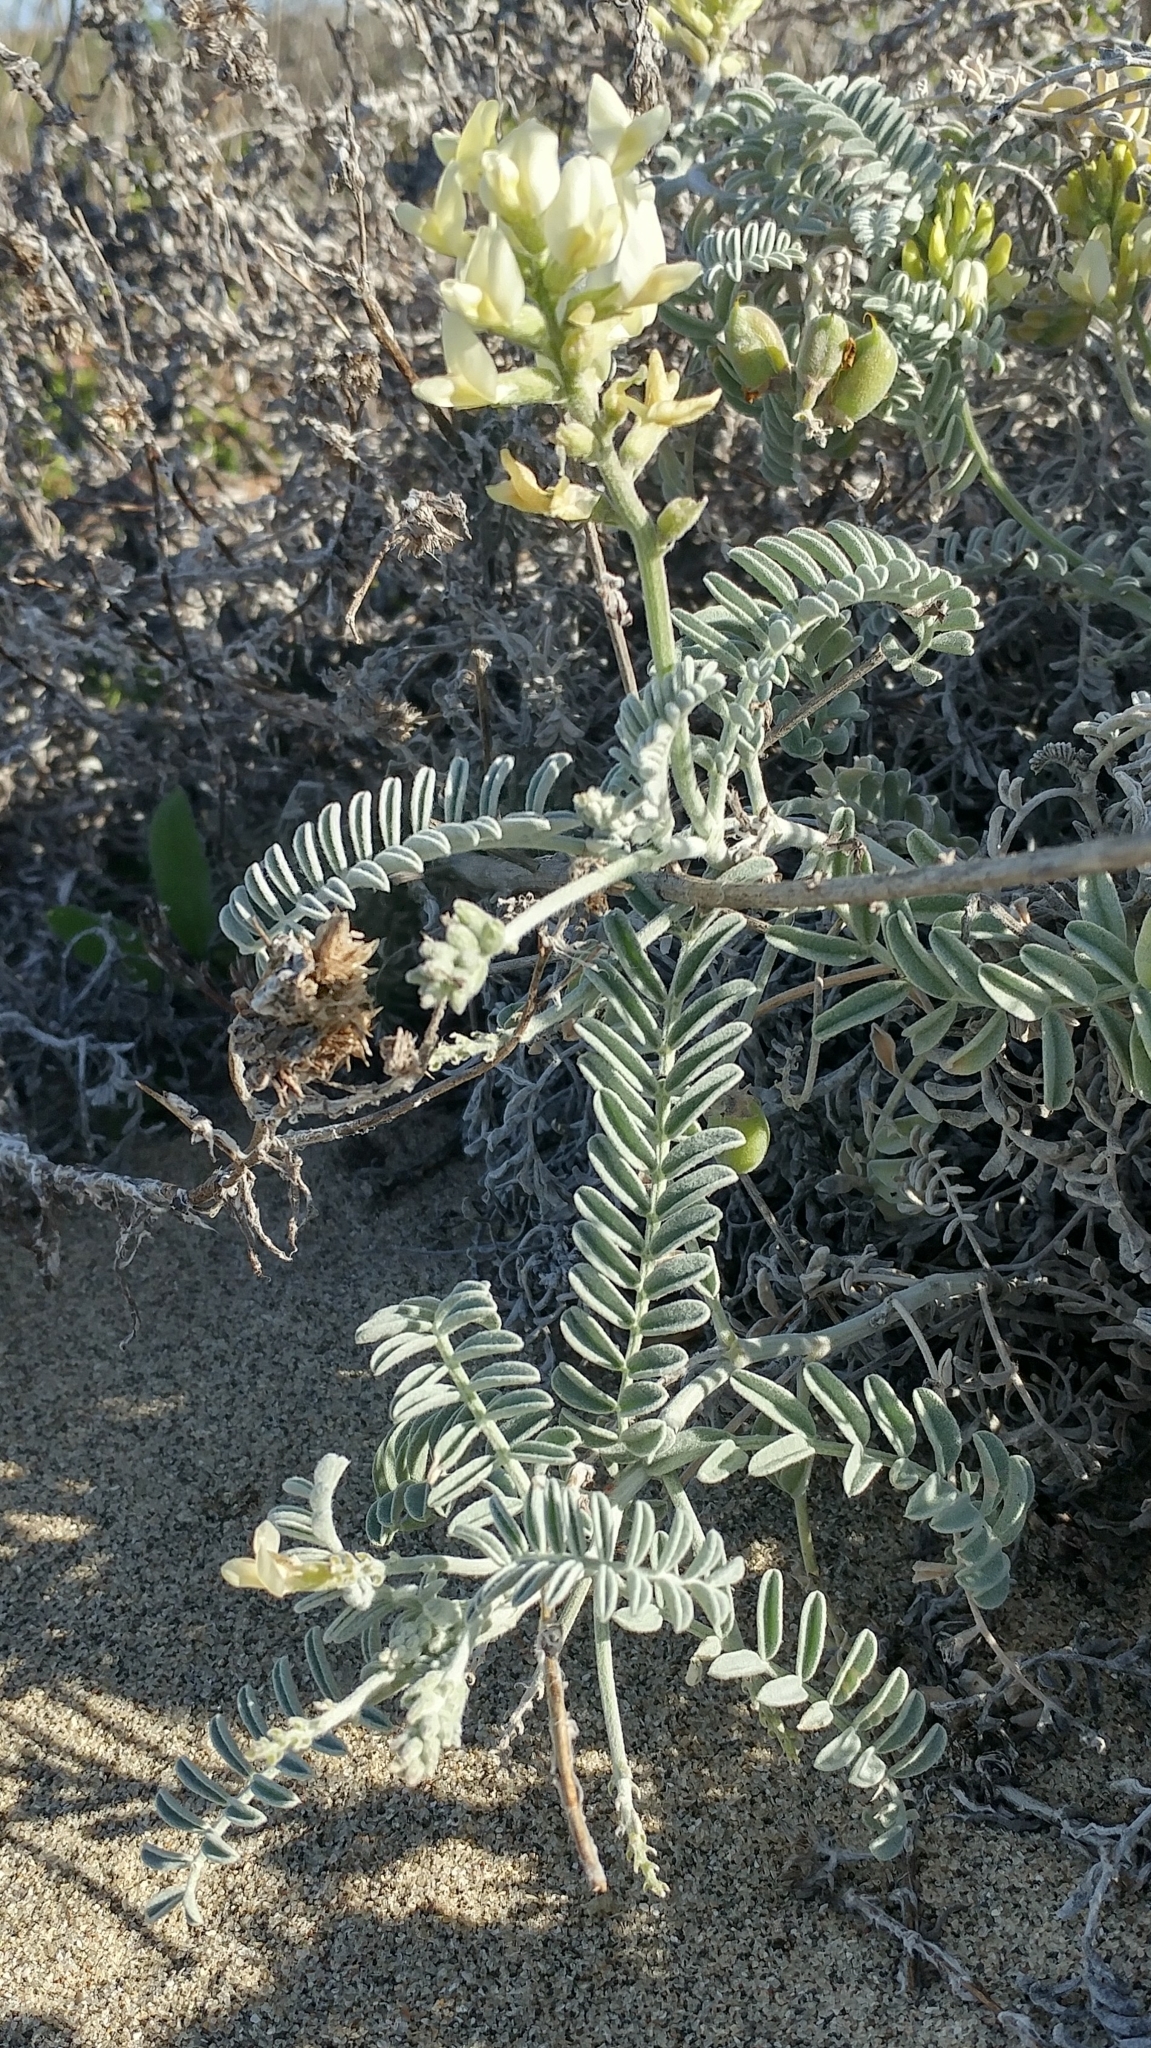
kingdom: Plantae
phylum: Tracheophyta
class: Magnoliopsida
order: Fabales
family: Fabaceae
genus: Astragalus
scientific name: Astragalus miguelensis
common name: San miguel milk-vetch
